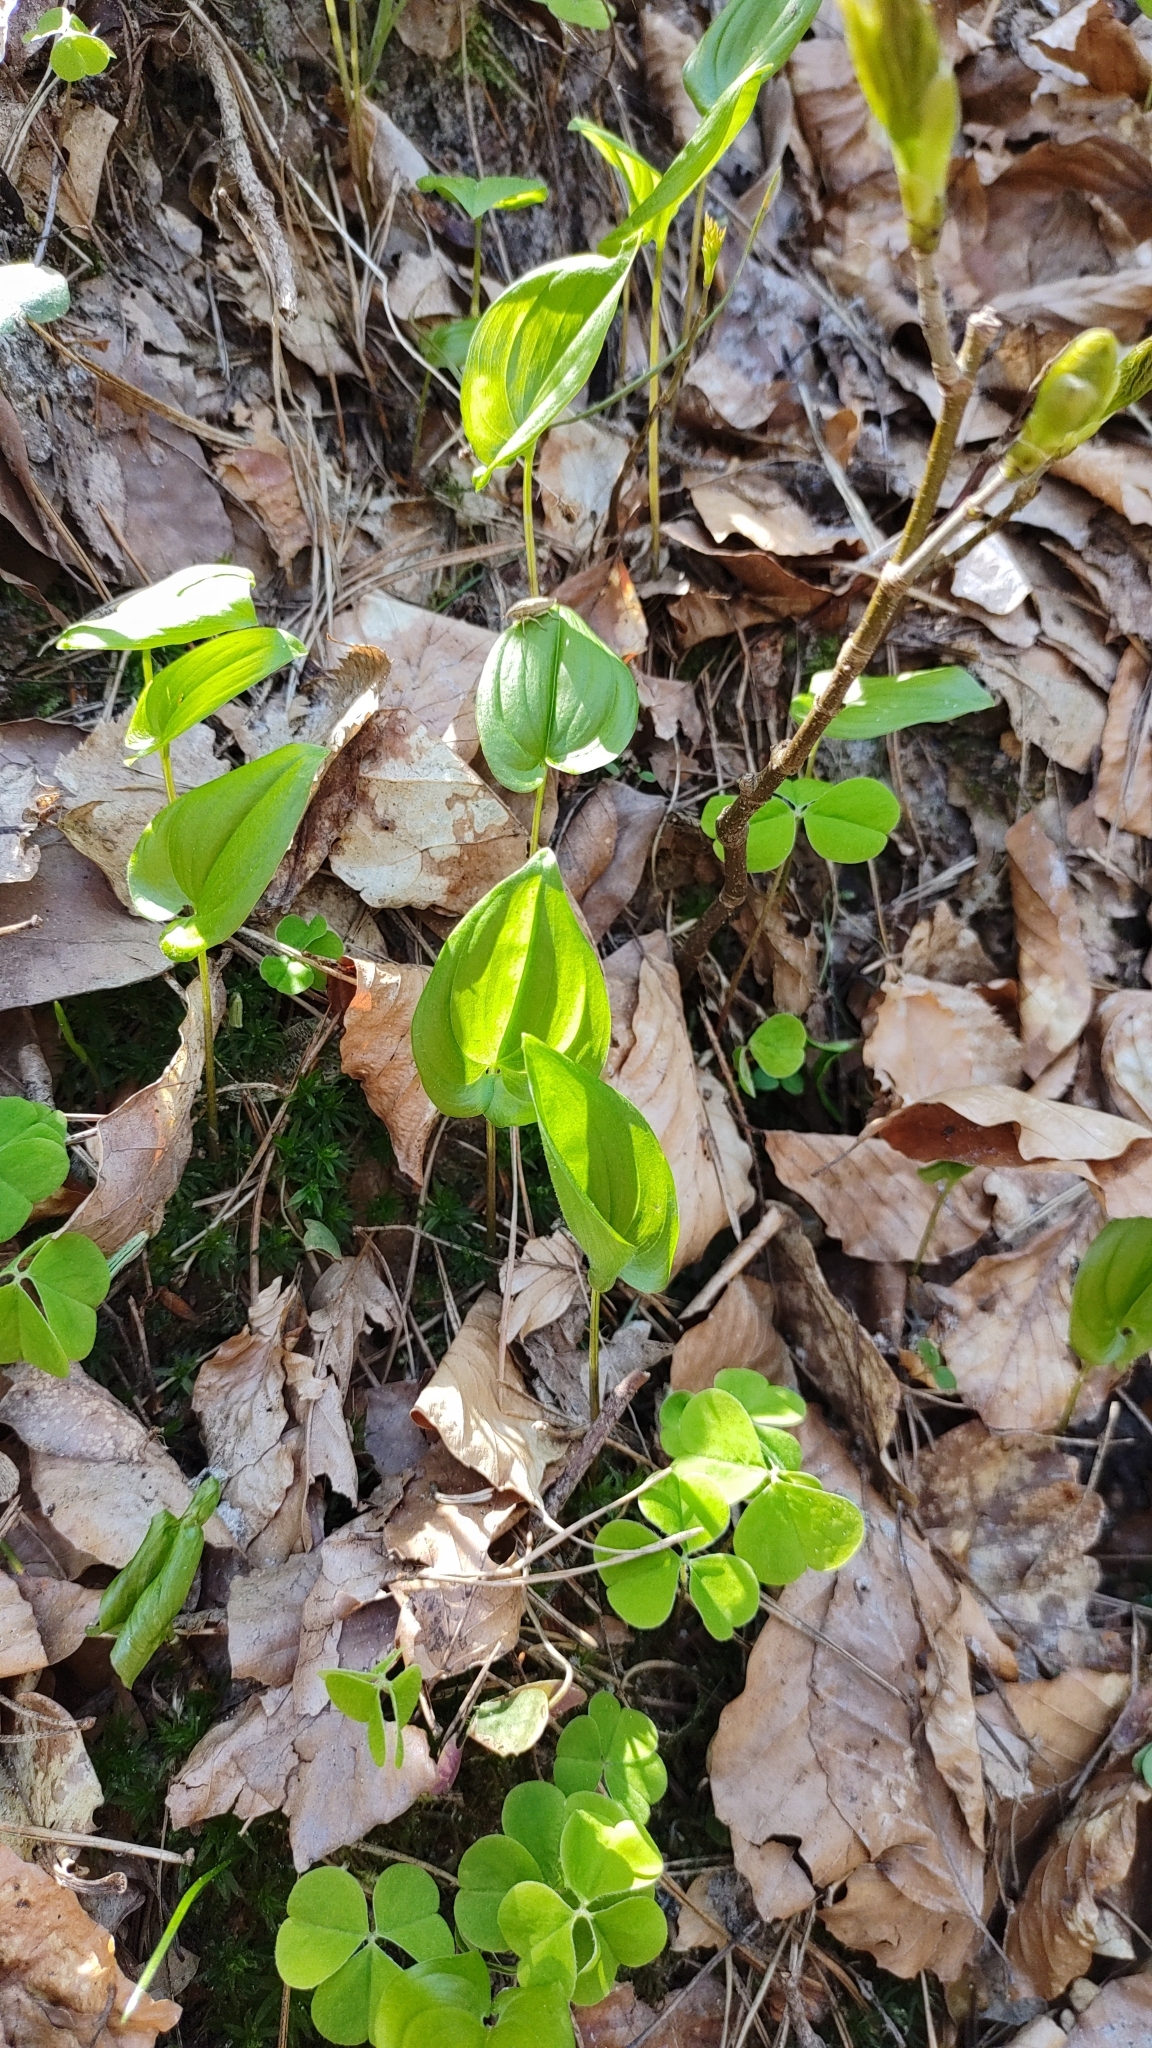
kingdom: Plantae
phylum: Tracheophyta
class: Liliopsida
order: Asparagales
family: Asparagaceae
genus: Maianthemum
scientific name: Maianthemum bifolium
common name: May lily
